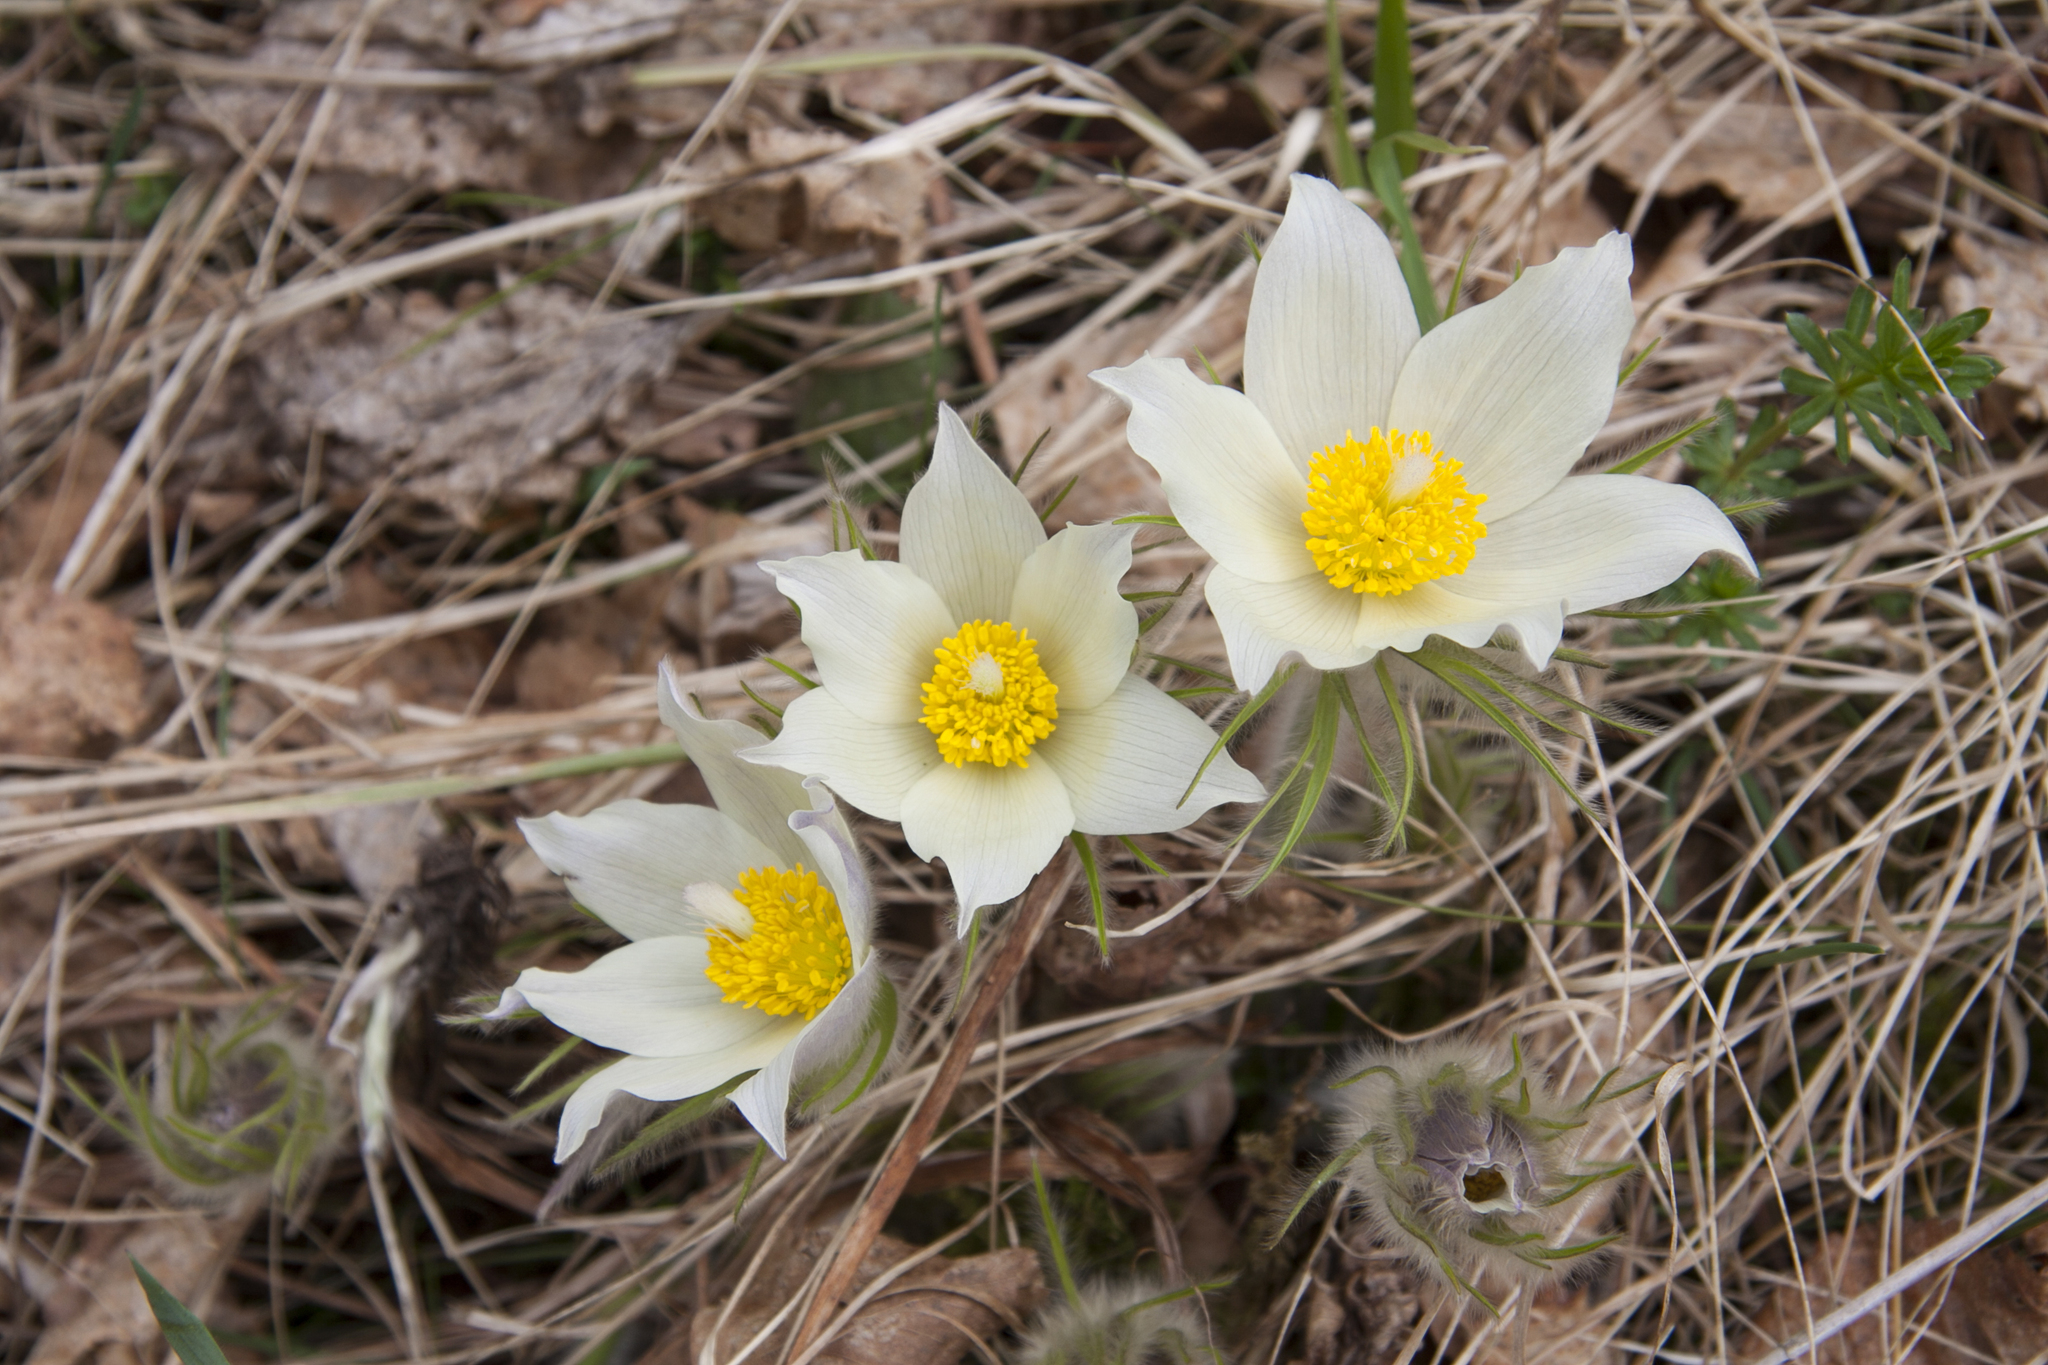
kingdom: Plantae
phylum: Tracheophyta
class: Magnoliopsida
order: Ranunculales
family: Ranunculaceae
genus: Pulsatilla
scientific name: Pulsatilla patens
